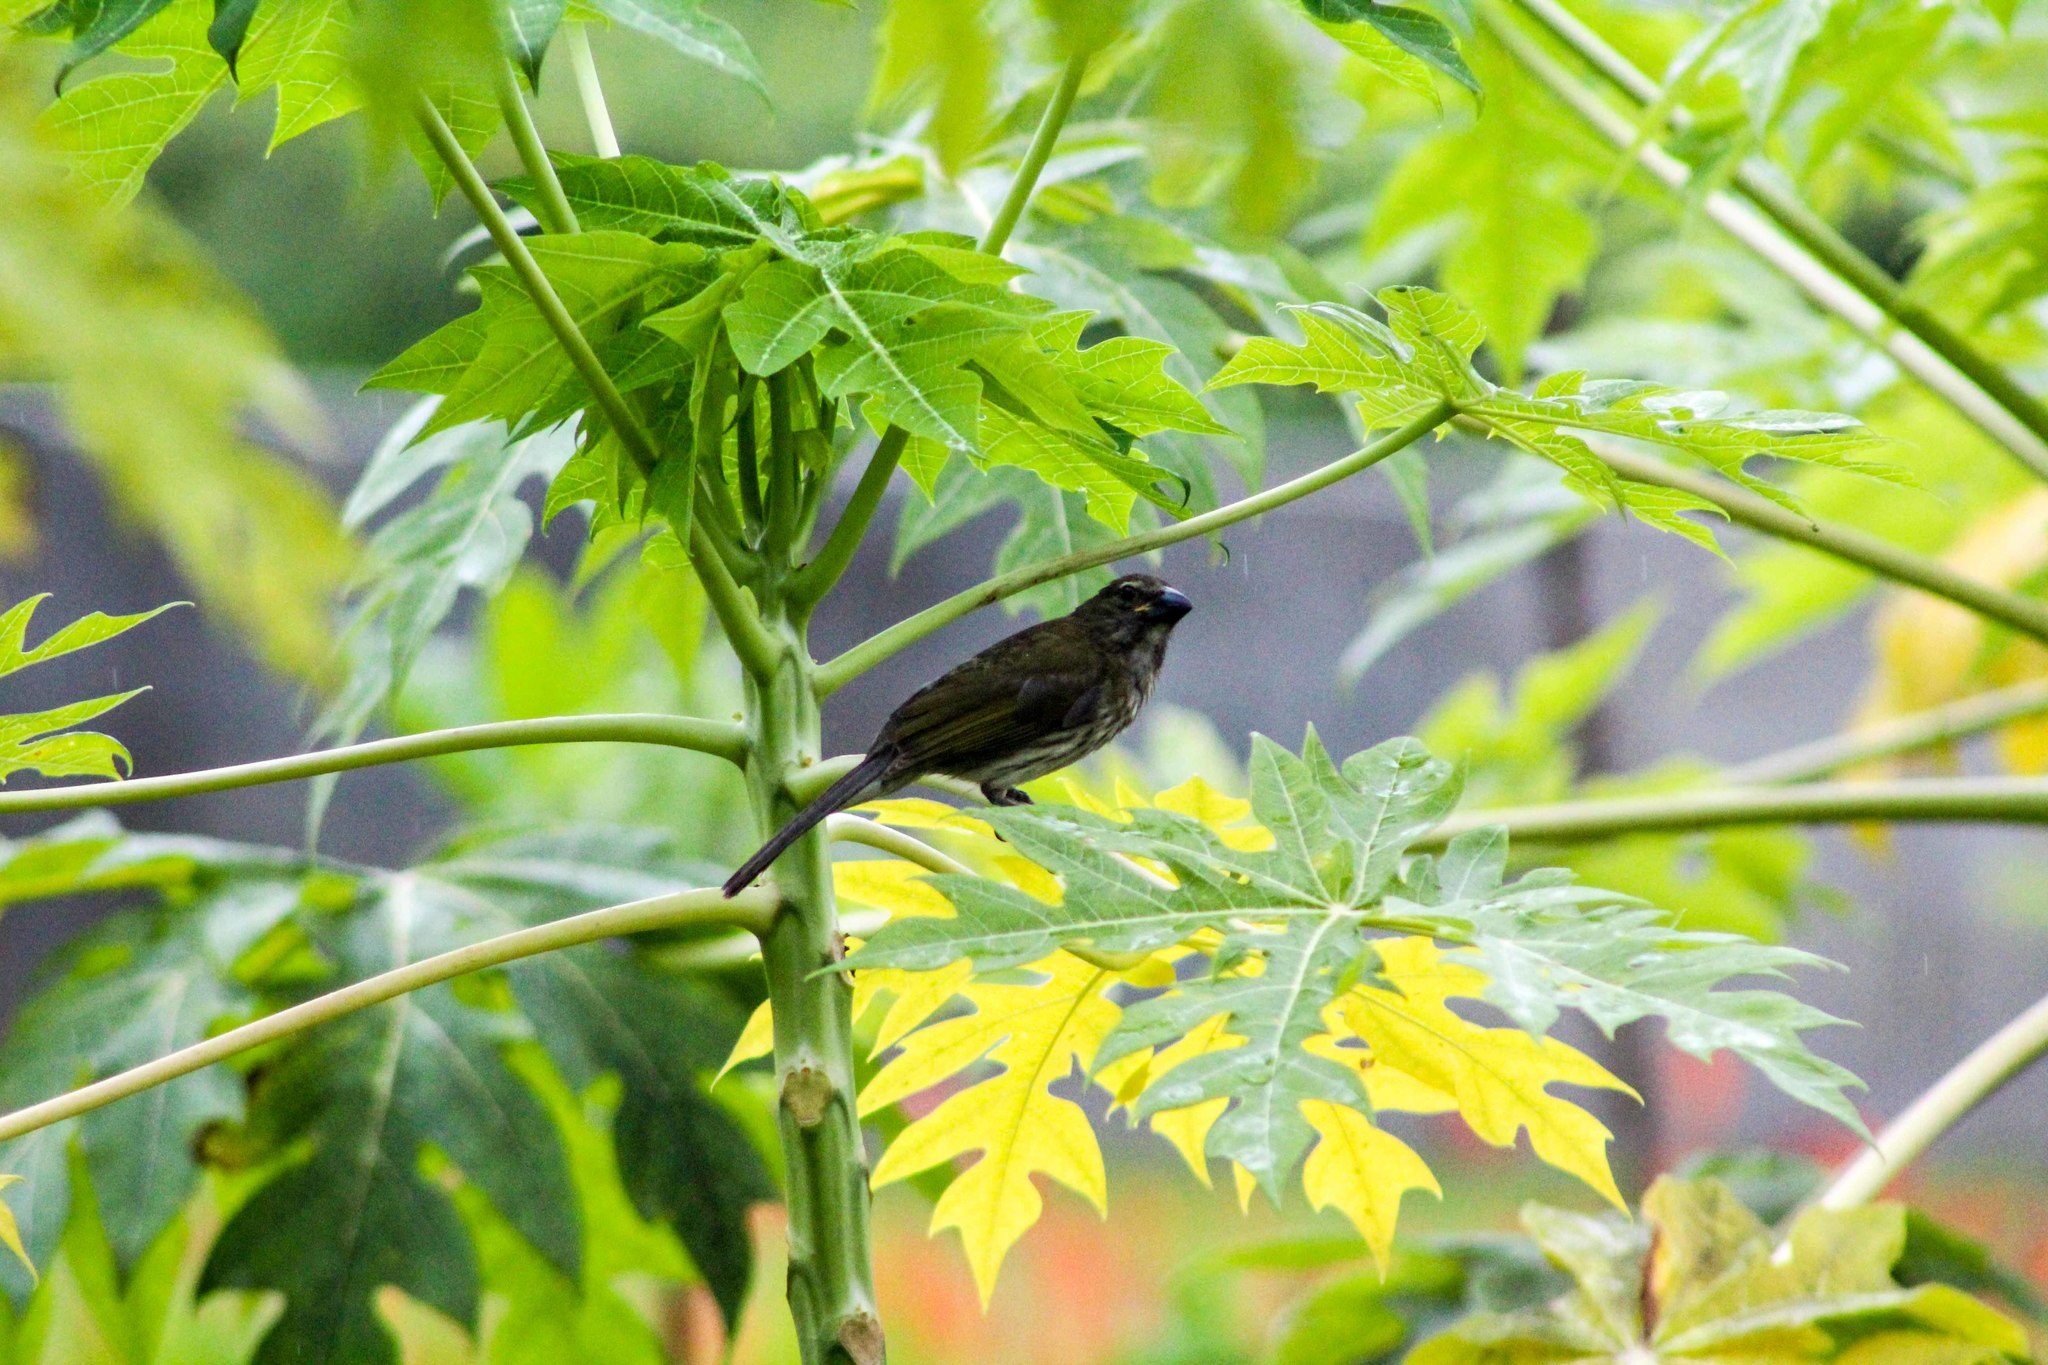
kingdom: Animalia
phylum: Chordata
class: Aves
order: Passeriformes
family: Thraupidae
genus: Saltator
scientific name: Saltator striatipectus
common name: Streaked saltator
